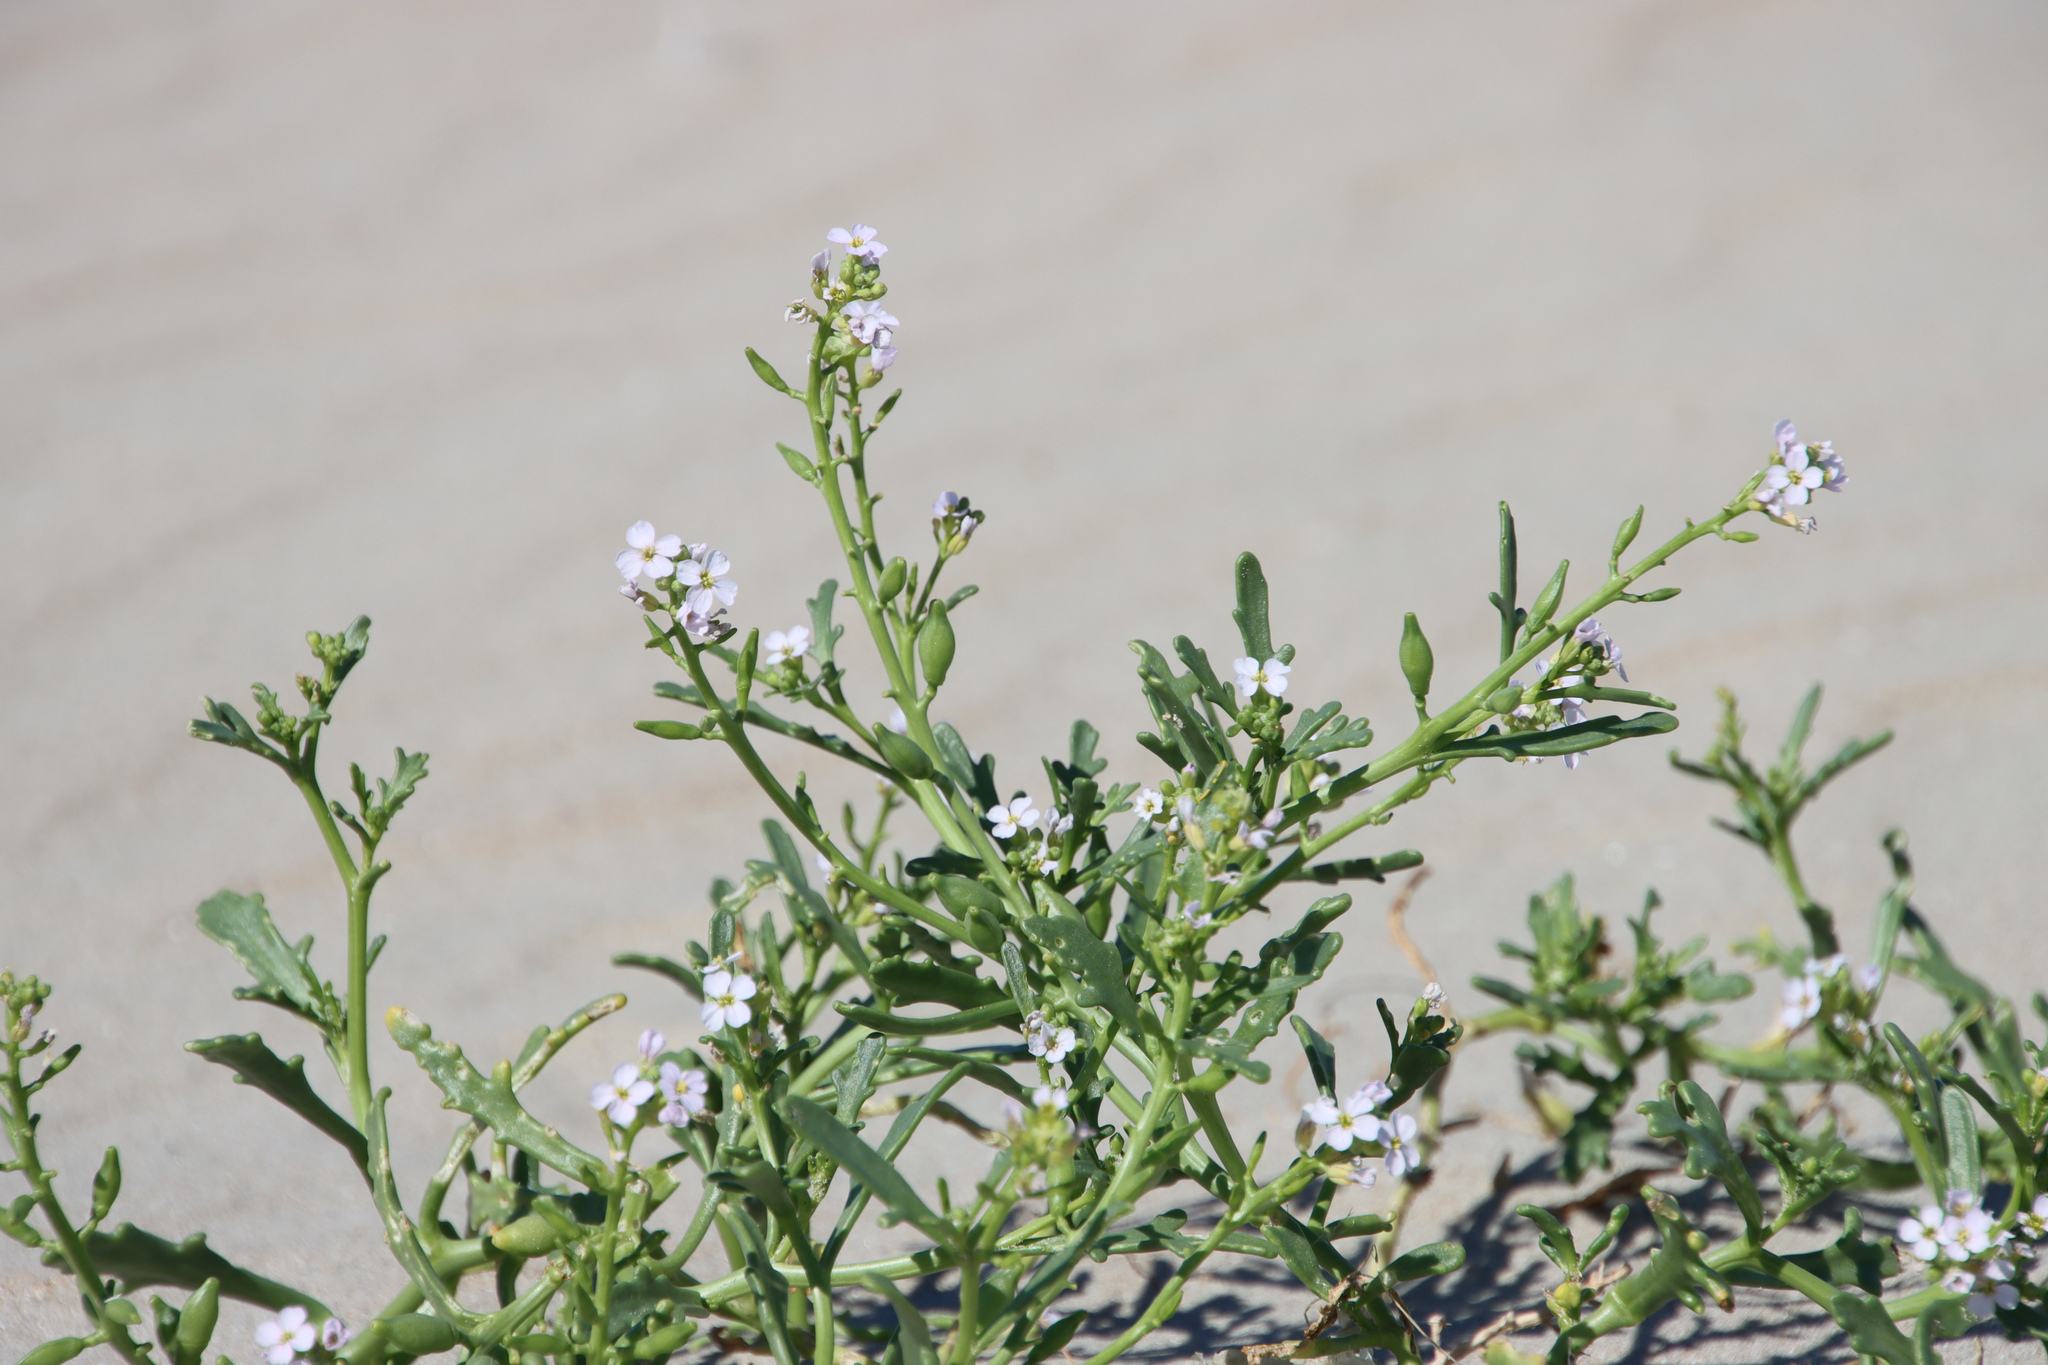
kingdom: Plantae
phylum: Tracheophyta
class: Magnoliopsida
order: Brassicales
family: Brassicaceae
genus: Cakile
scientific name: Cakile maritima
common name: Sea rocket
